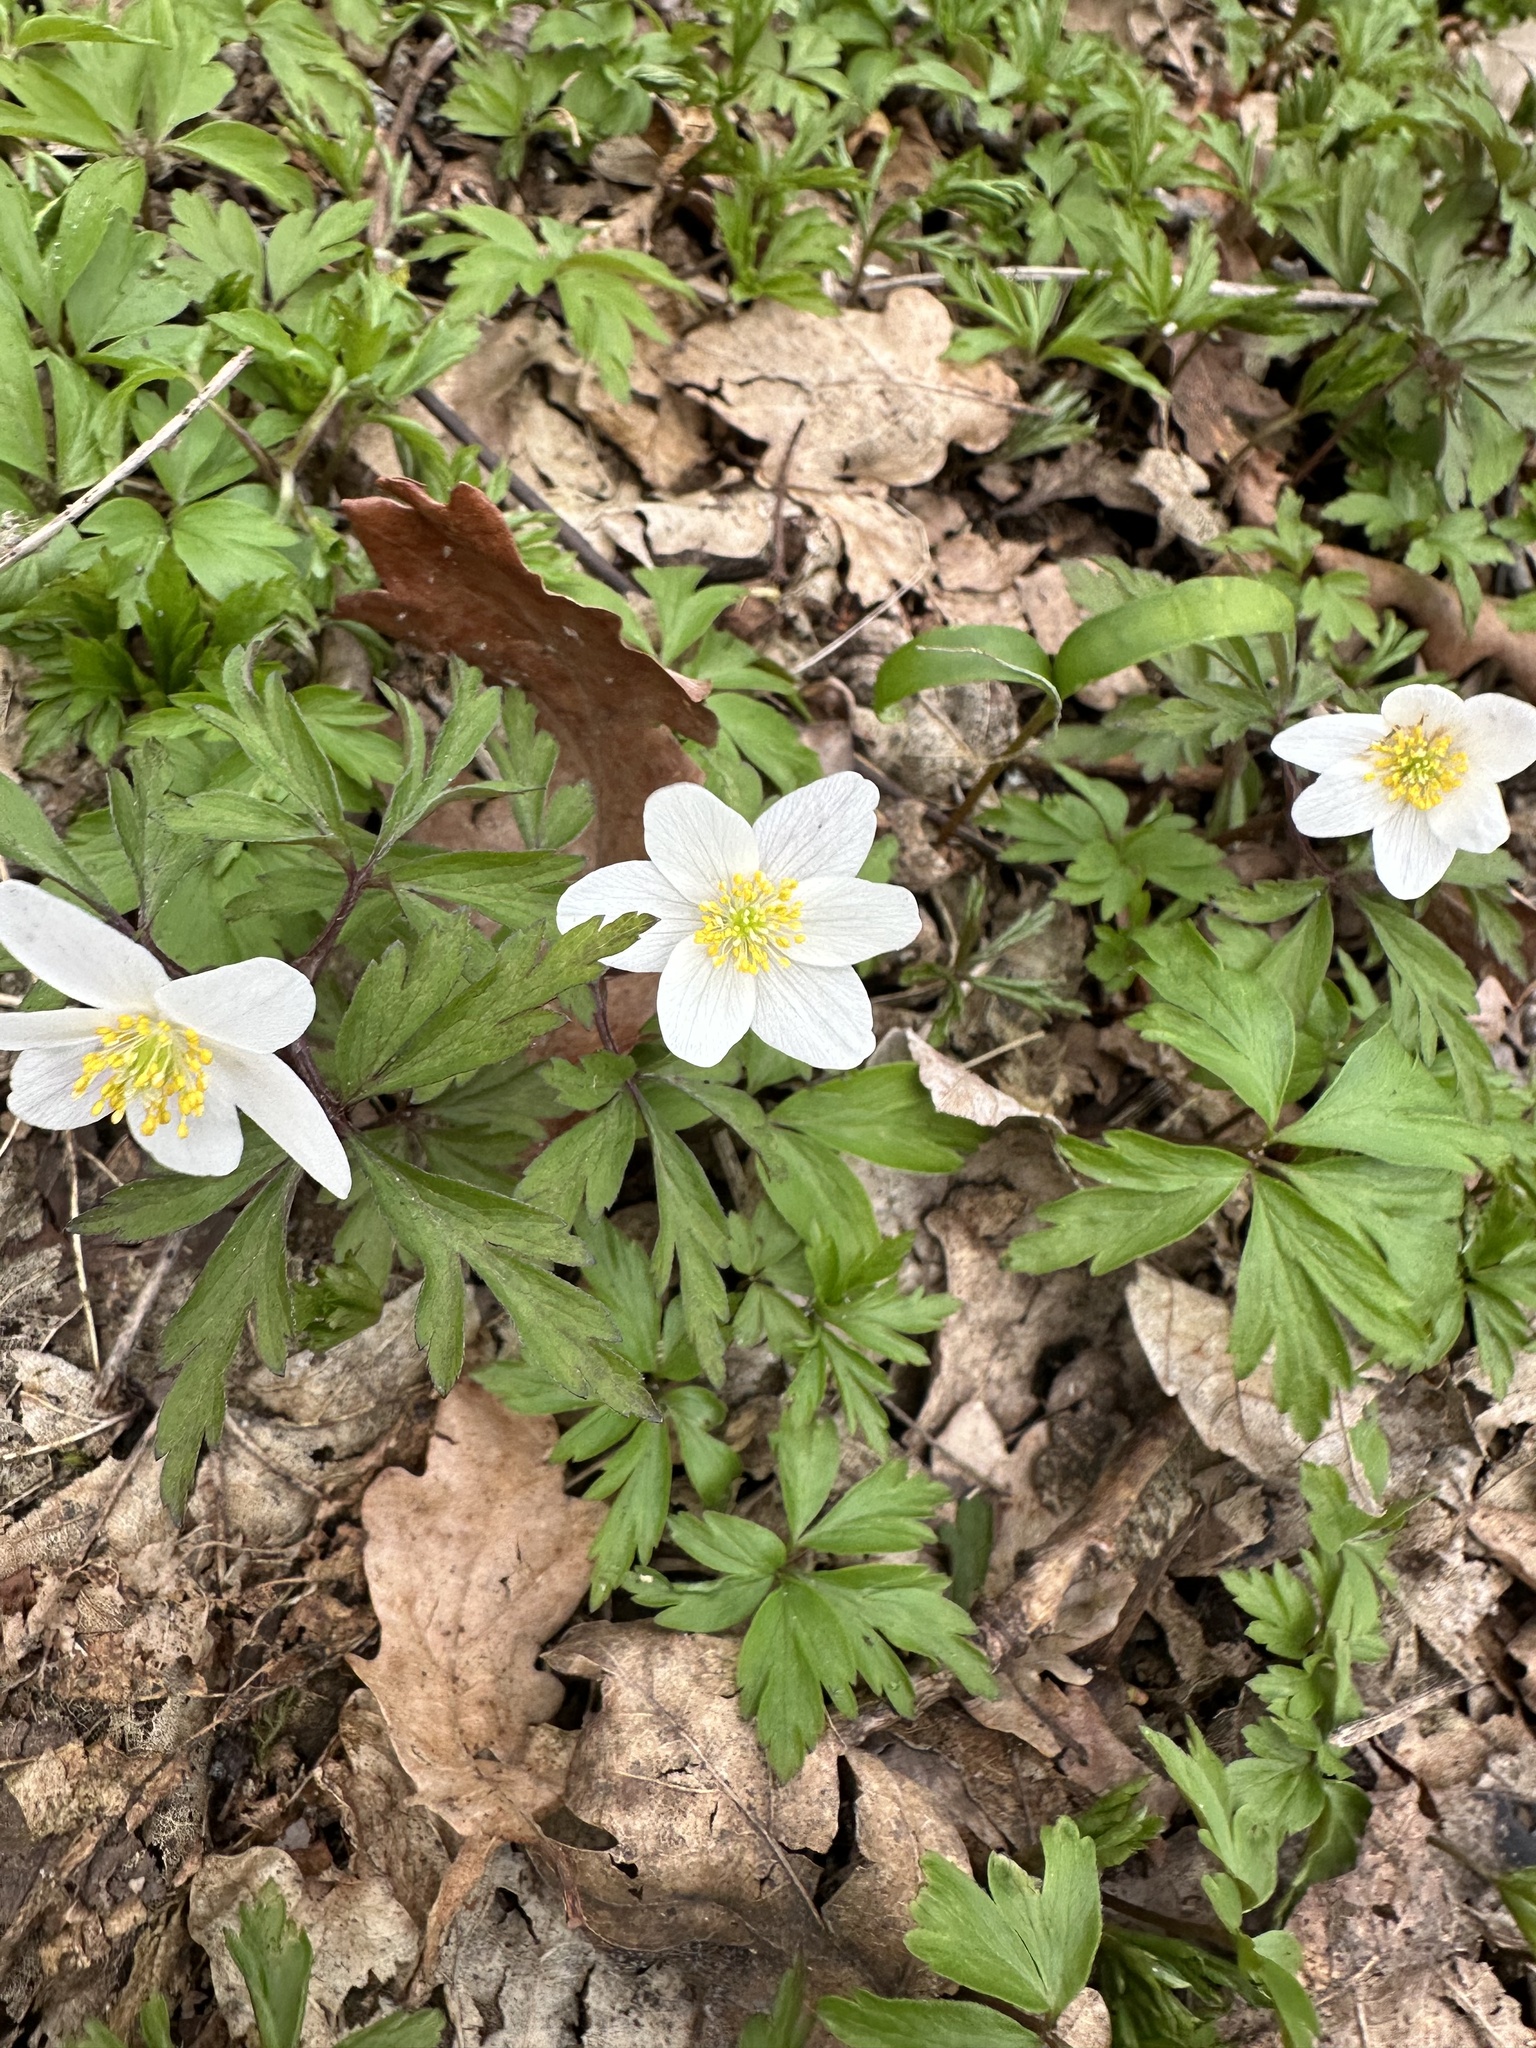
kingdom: Plantae
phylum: Tracheophyta
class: Magnoliopsida
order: Ranunculales
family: Ranunculaceae
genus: Anemone
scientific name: Anemone nemorosa
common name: Wood anemone
